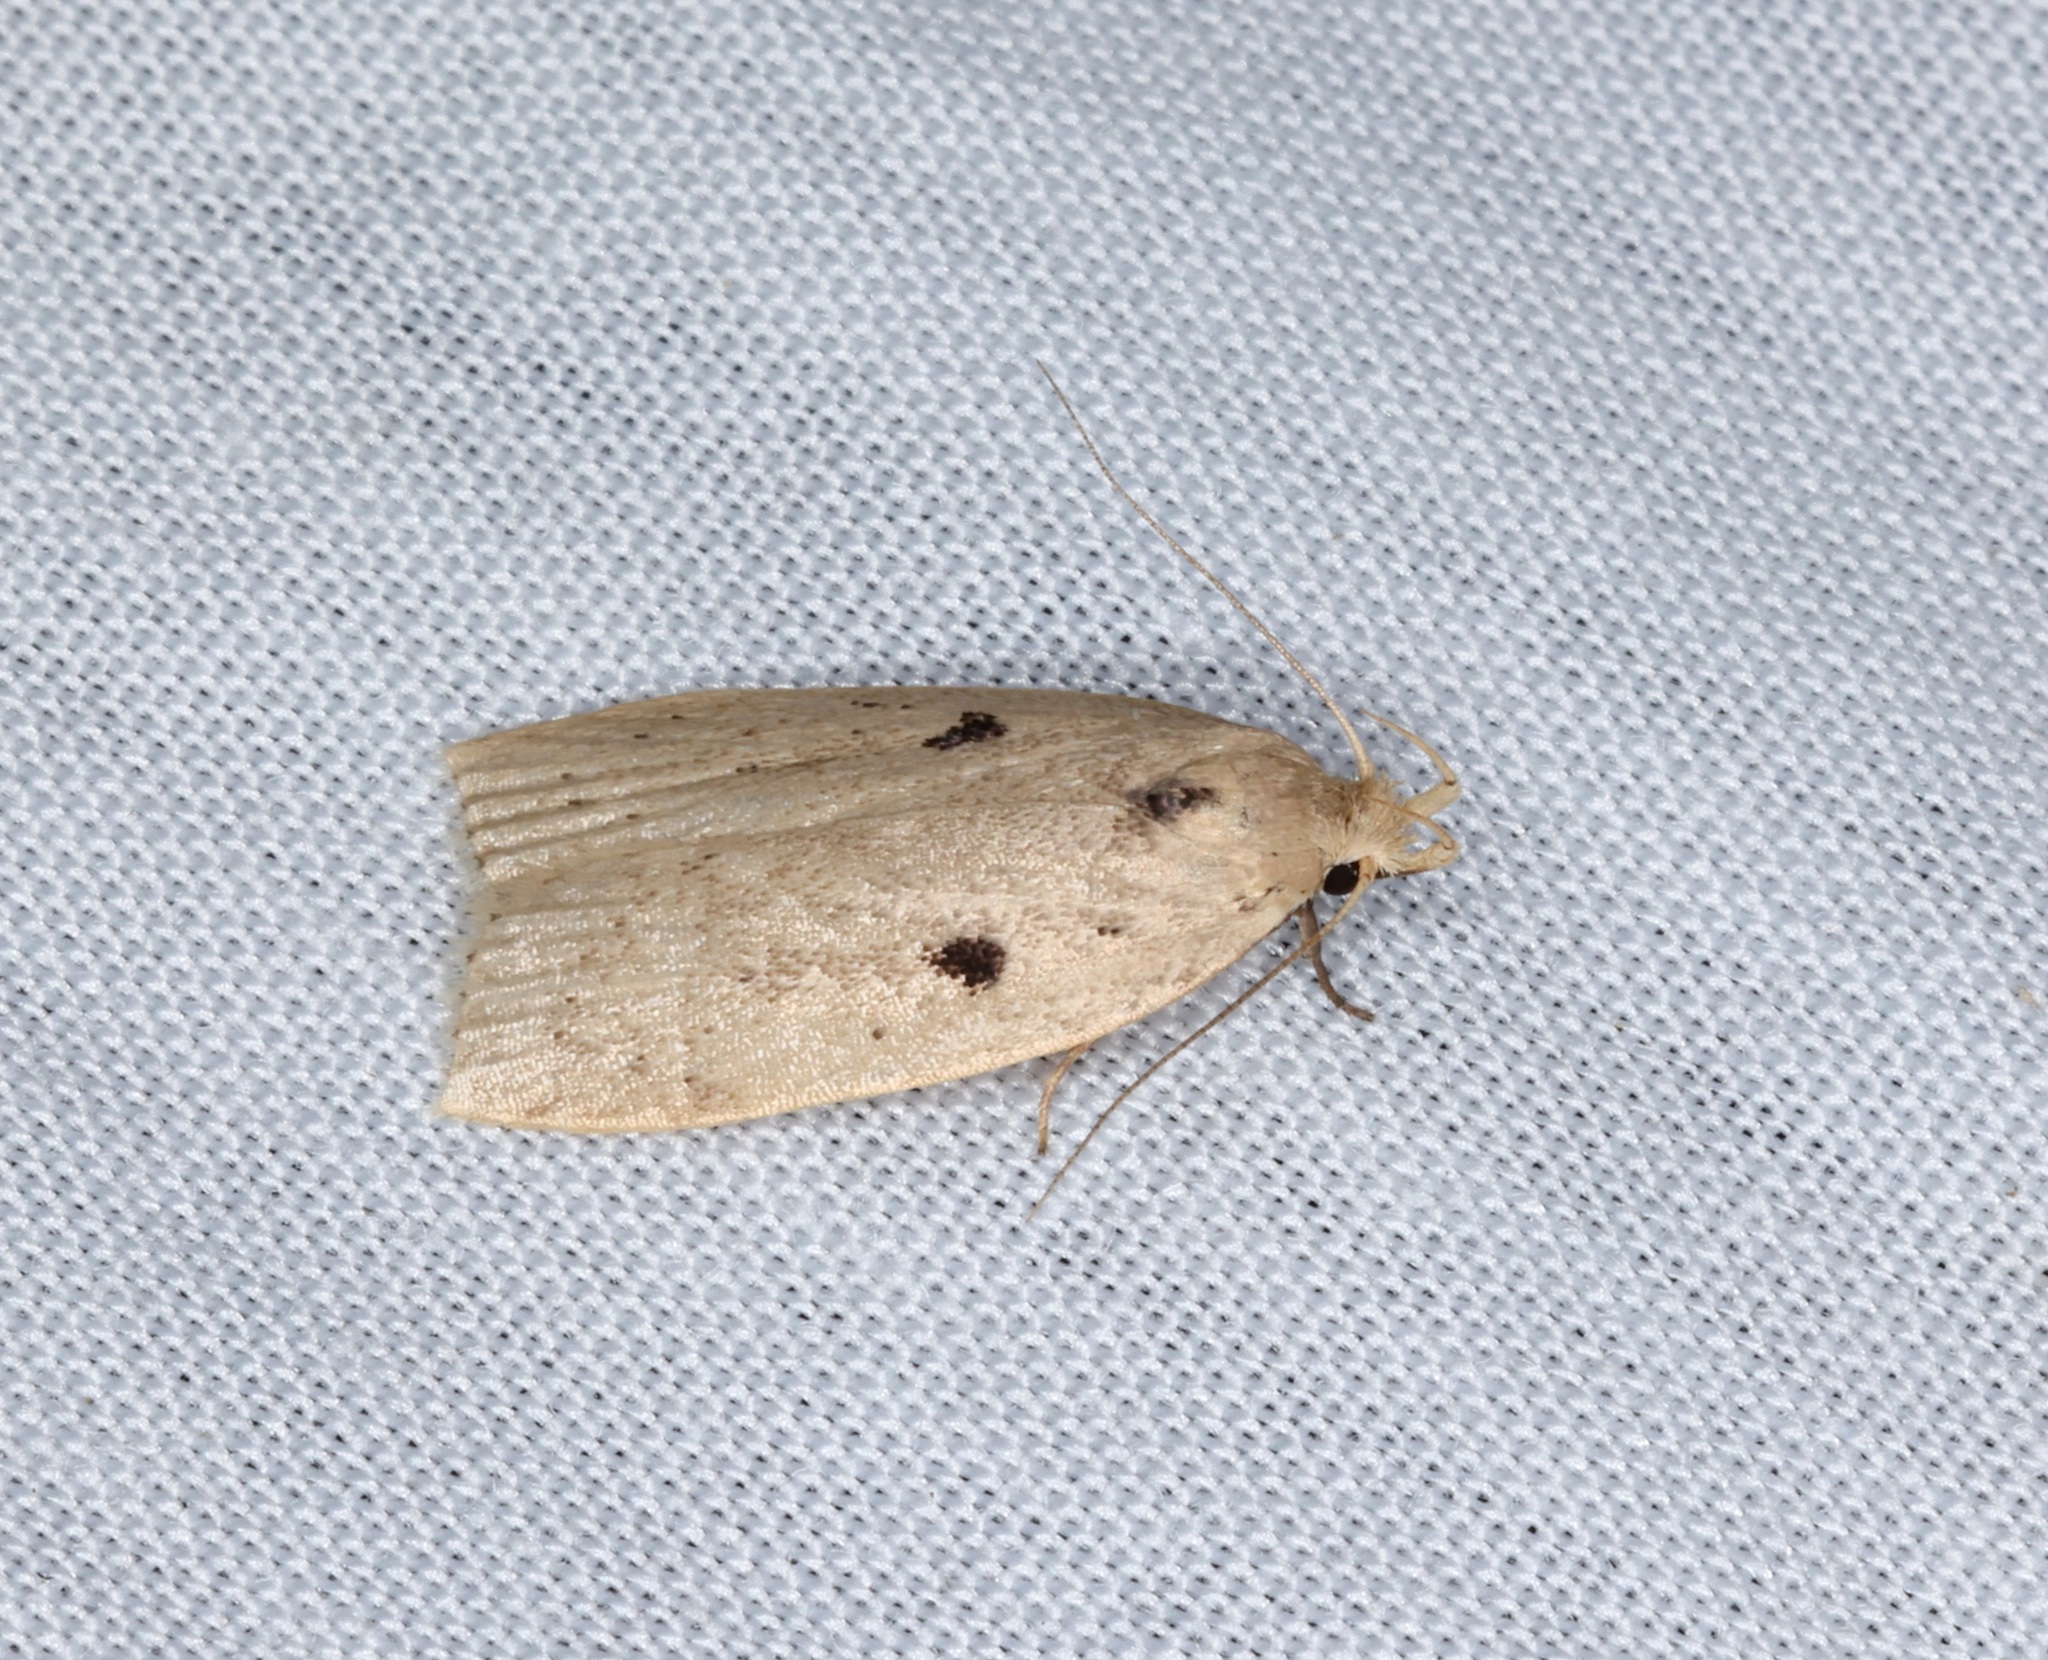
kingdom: Animalia
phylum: Arthropoda
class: Insecta
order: Lepidoptera
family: Peleopodidae
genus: Odites
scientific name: Odites ricinella
